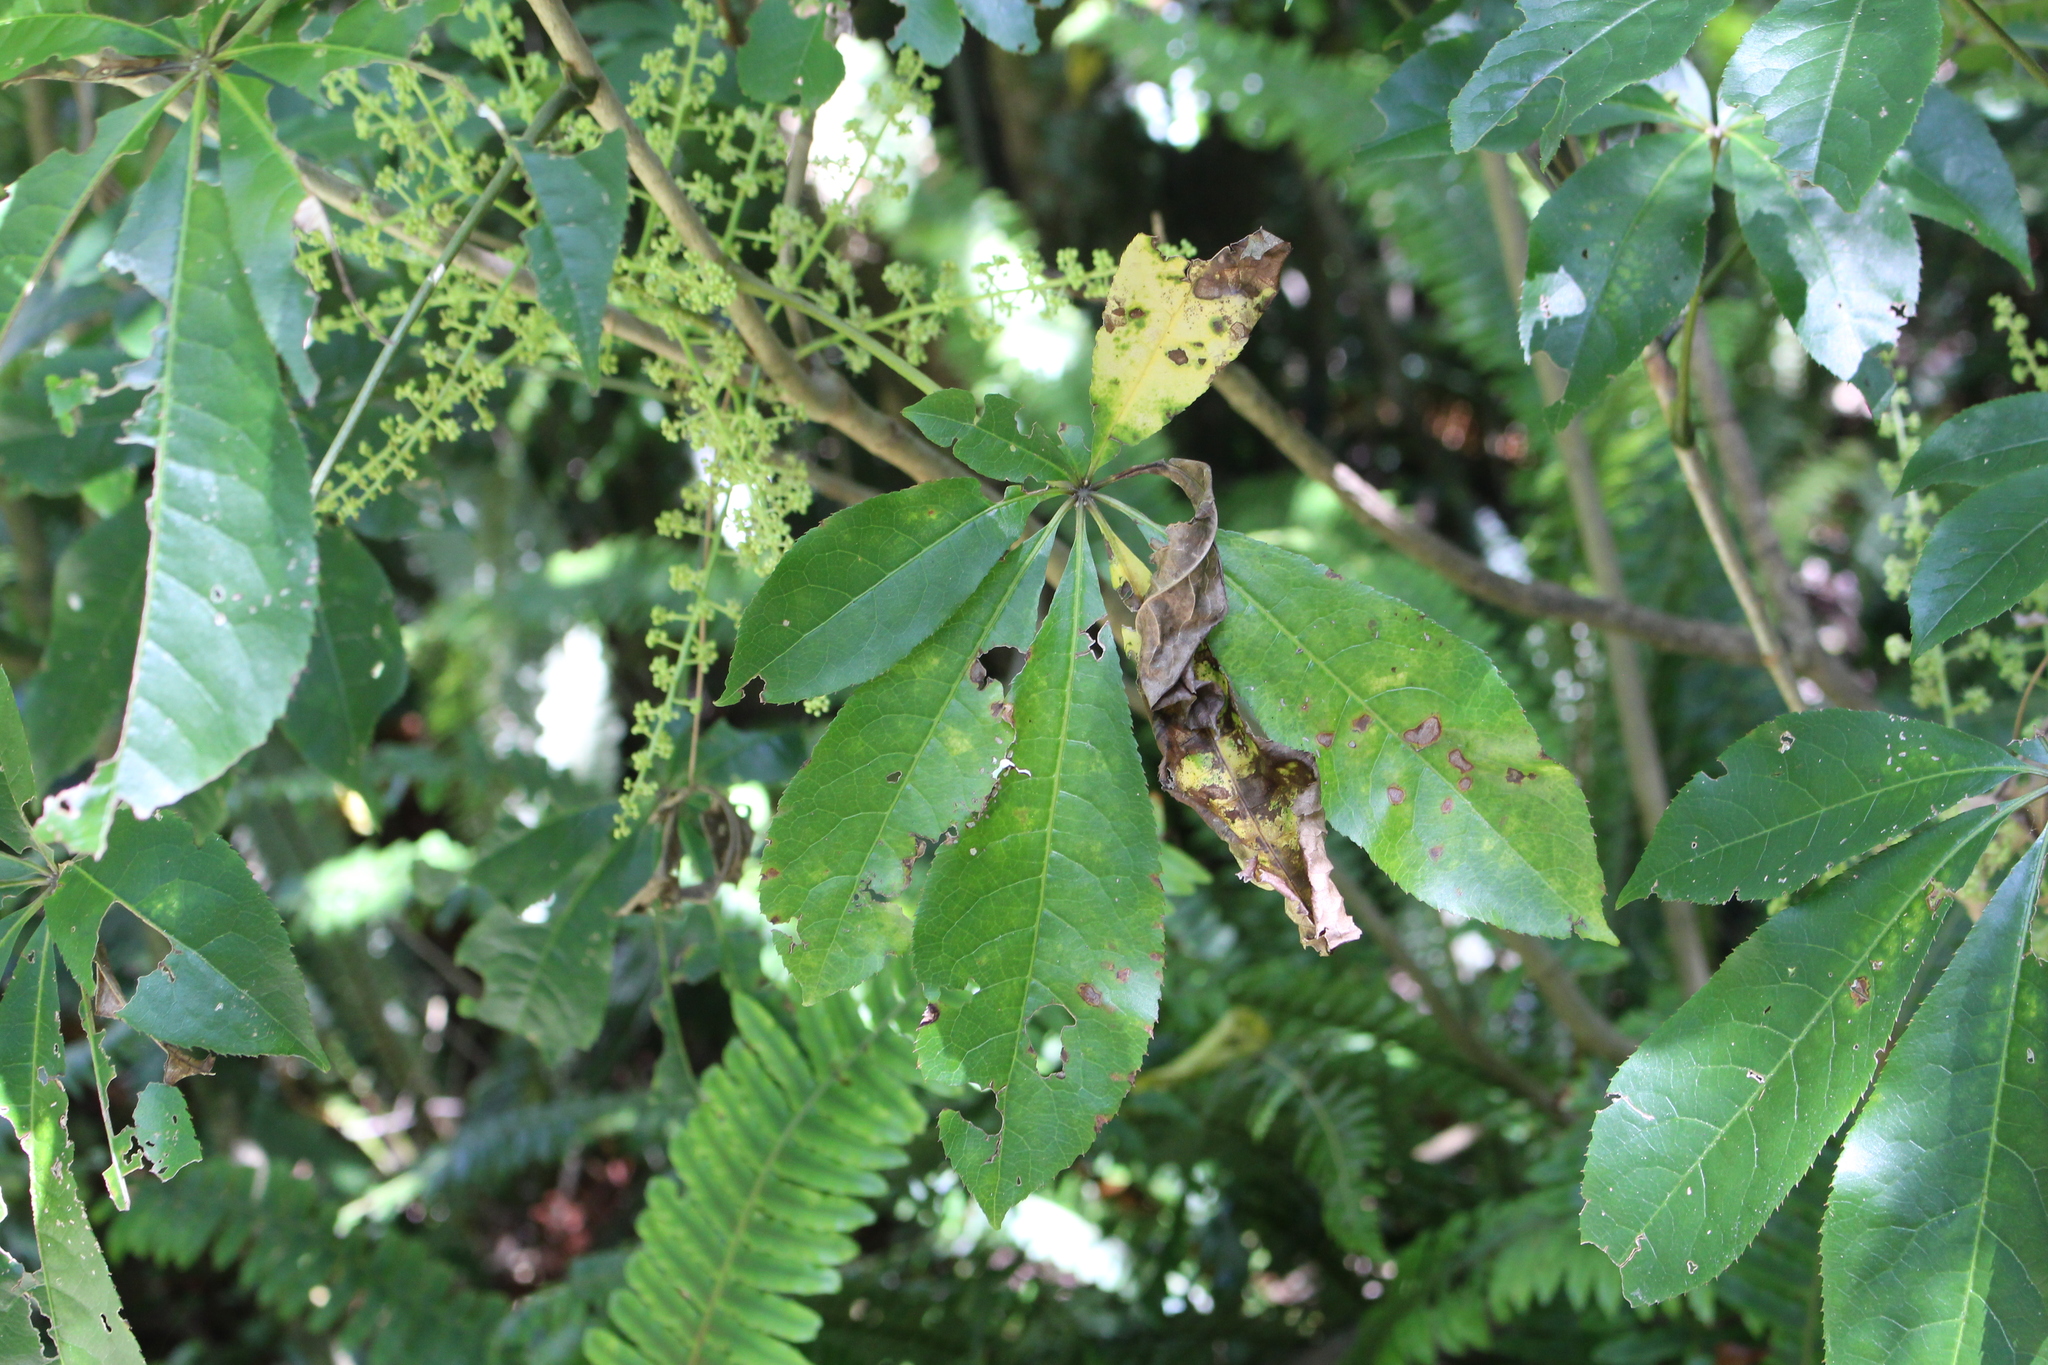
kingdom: Plantae
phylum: Tracheophyta
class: Magnoliopsida
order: Apiales
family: Araliaceae
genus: Schefflera
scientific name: Schefflera digitata
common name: Pate
